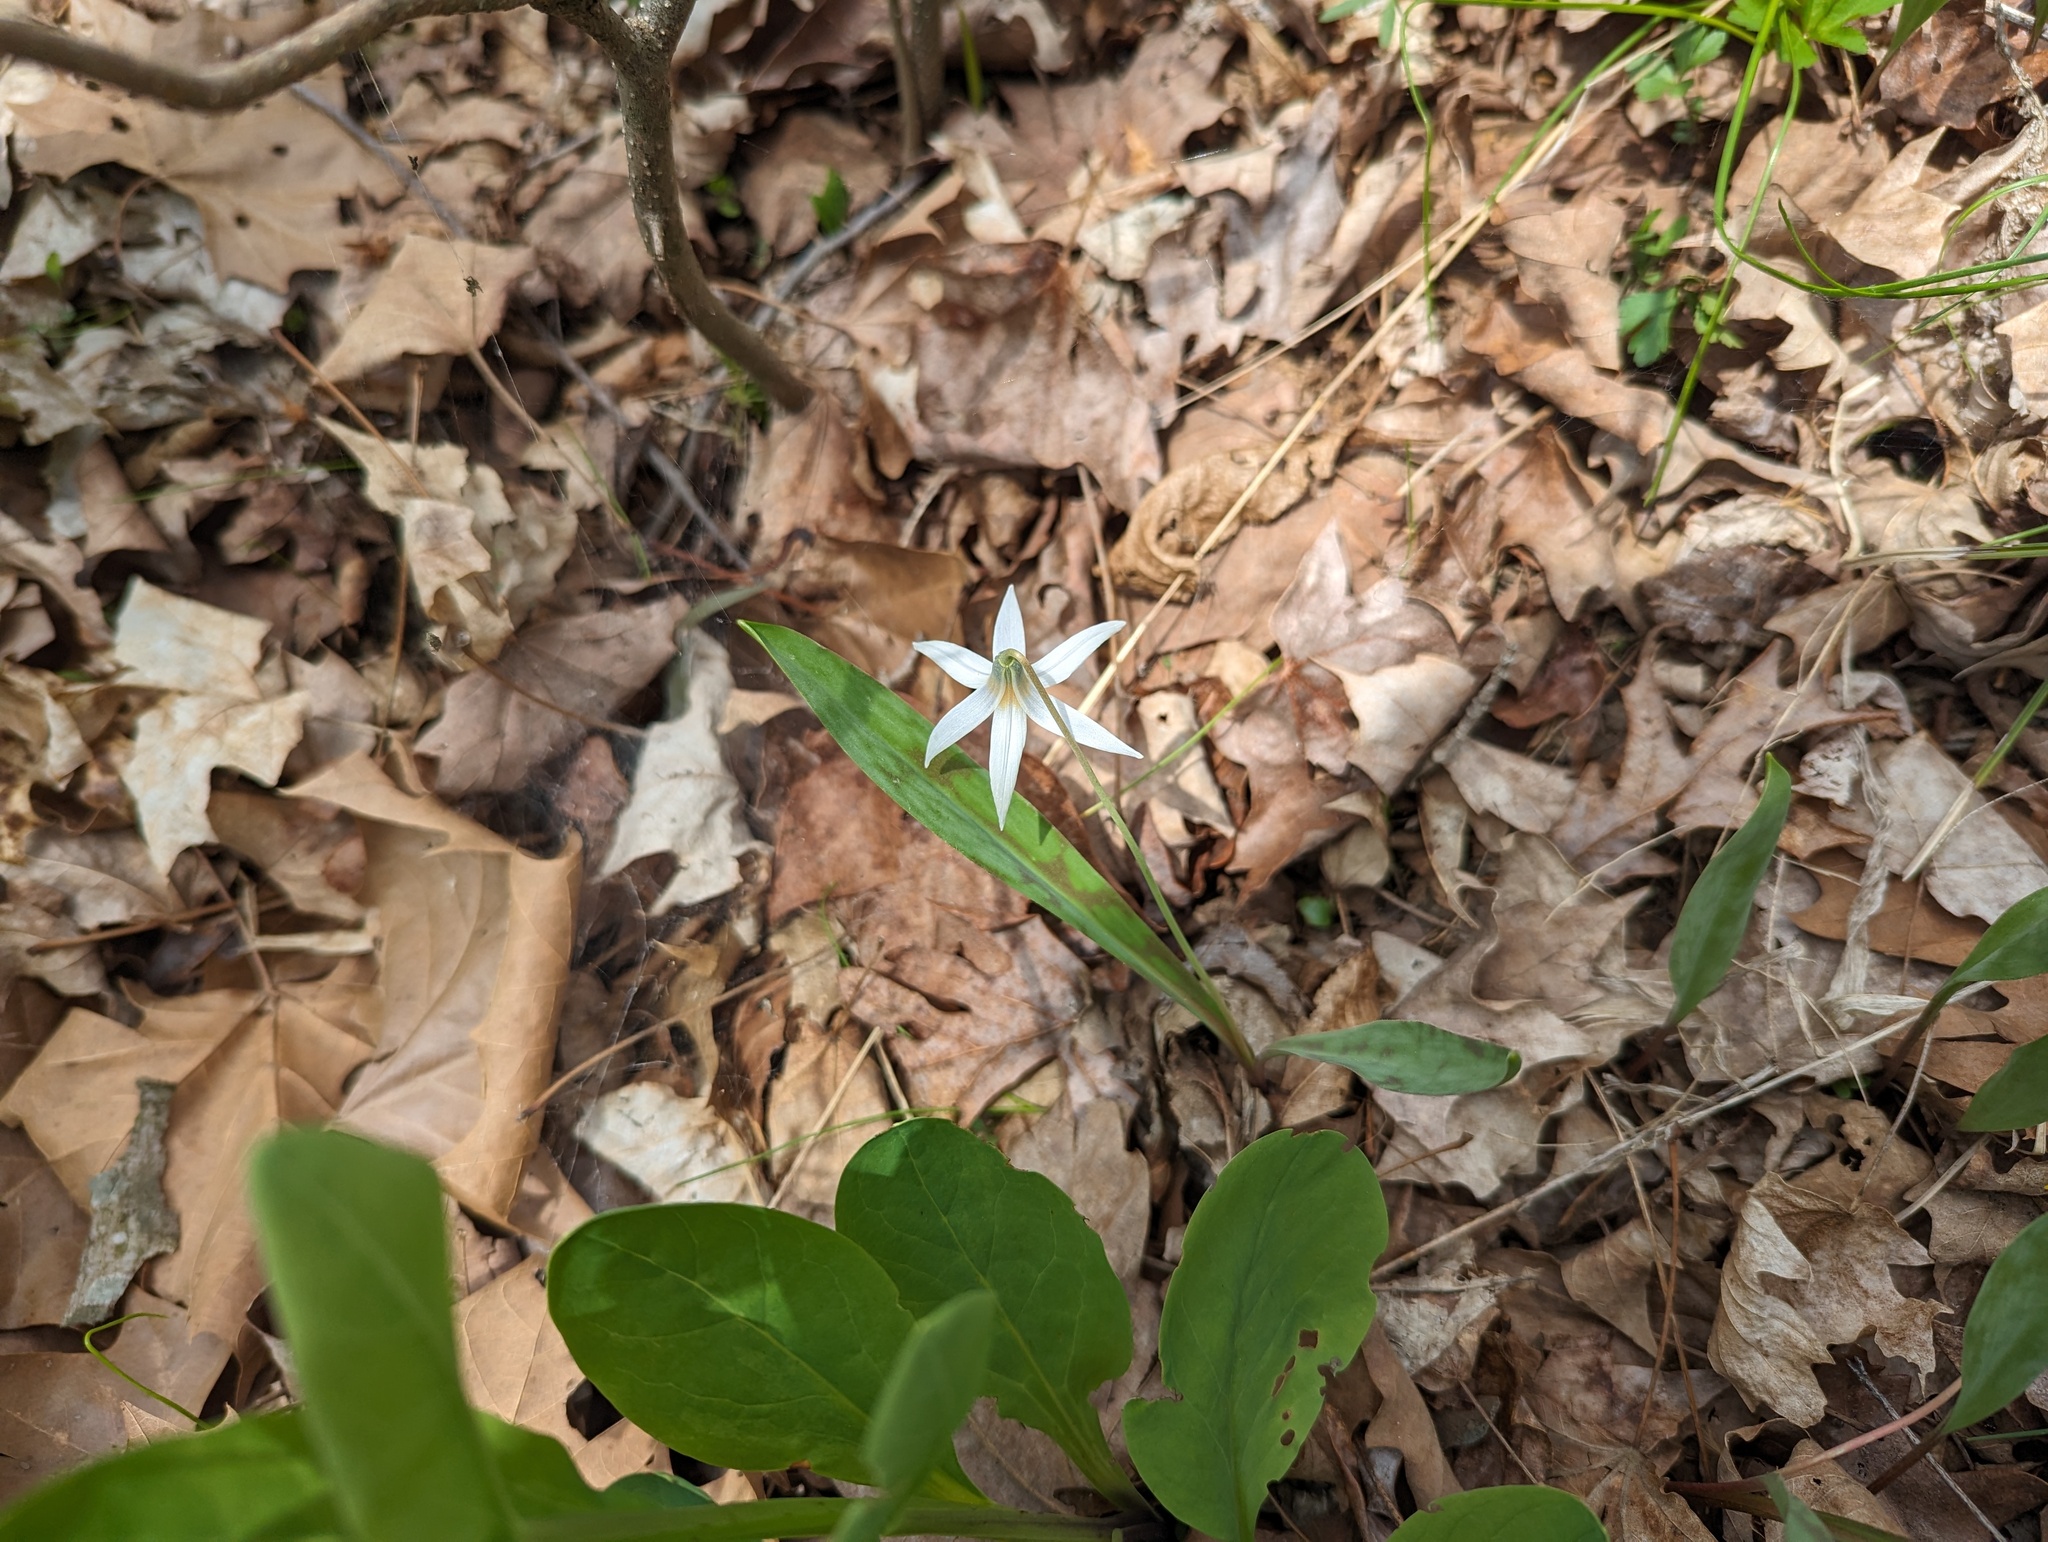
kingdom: Plantae
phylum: Tracheophyta
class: Liliopsida
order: Liliales
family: Liliaceae
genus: Erythronium
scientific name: Erythronium albidum
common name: White trout-lily
